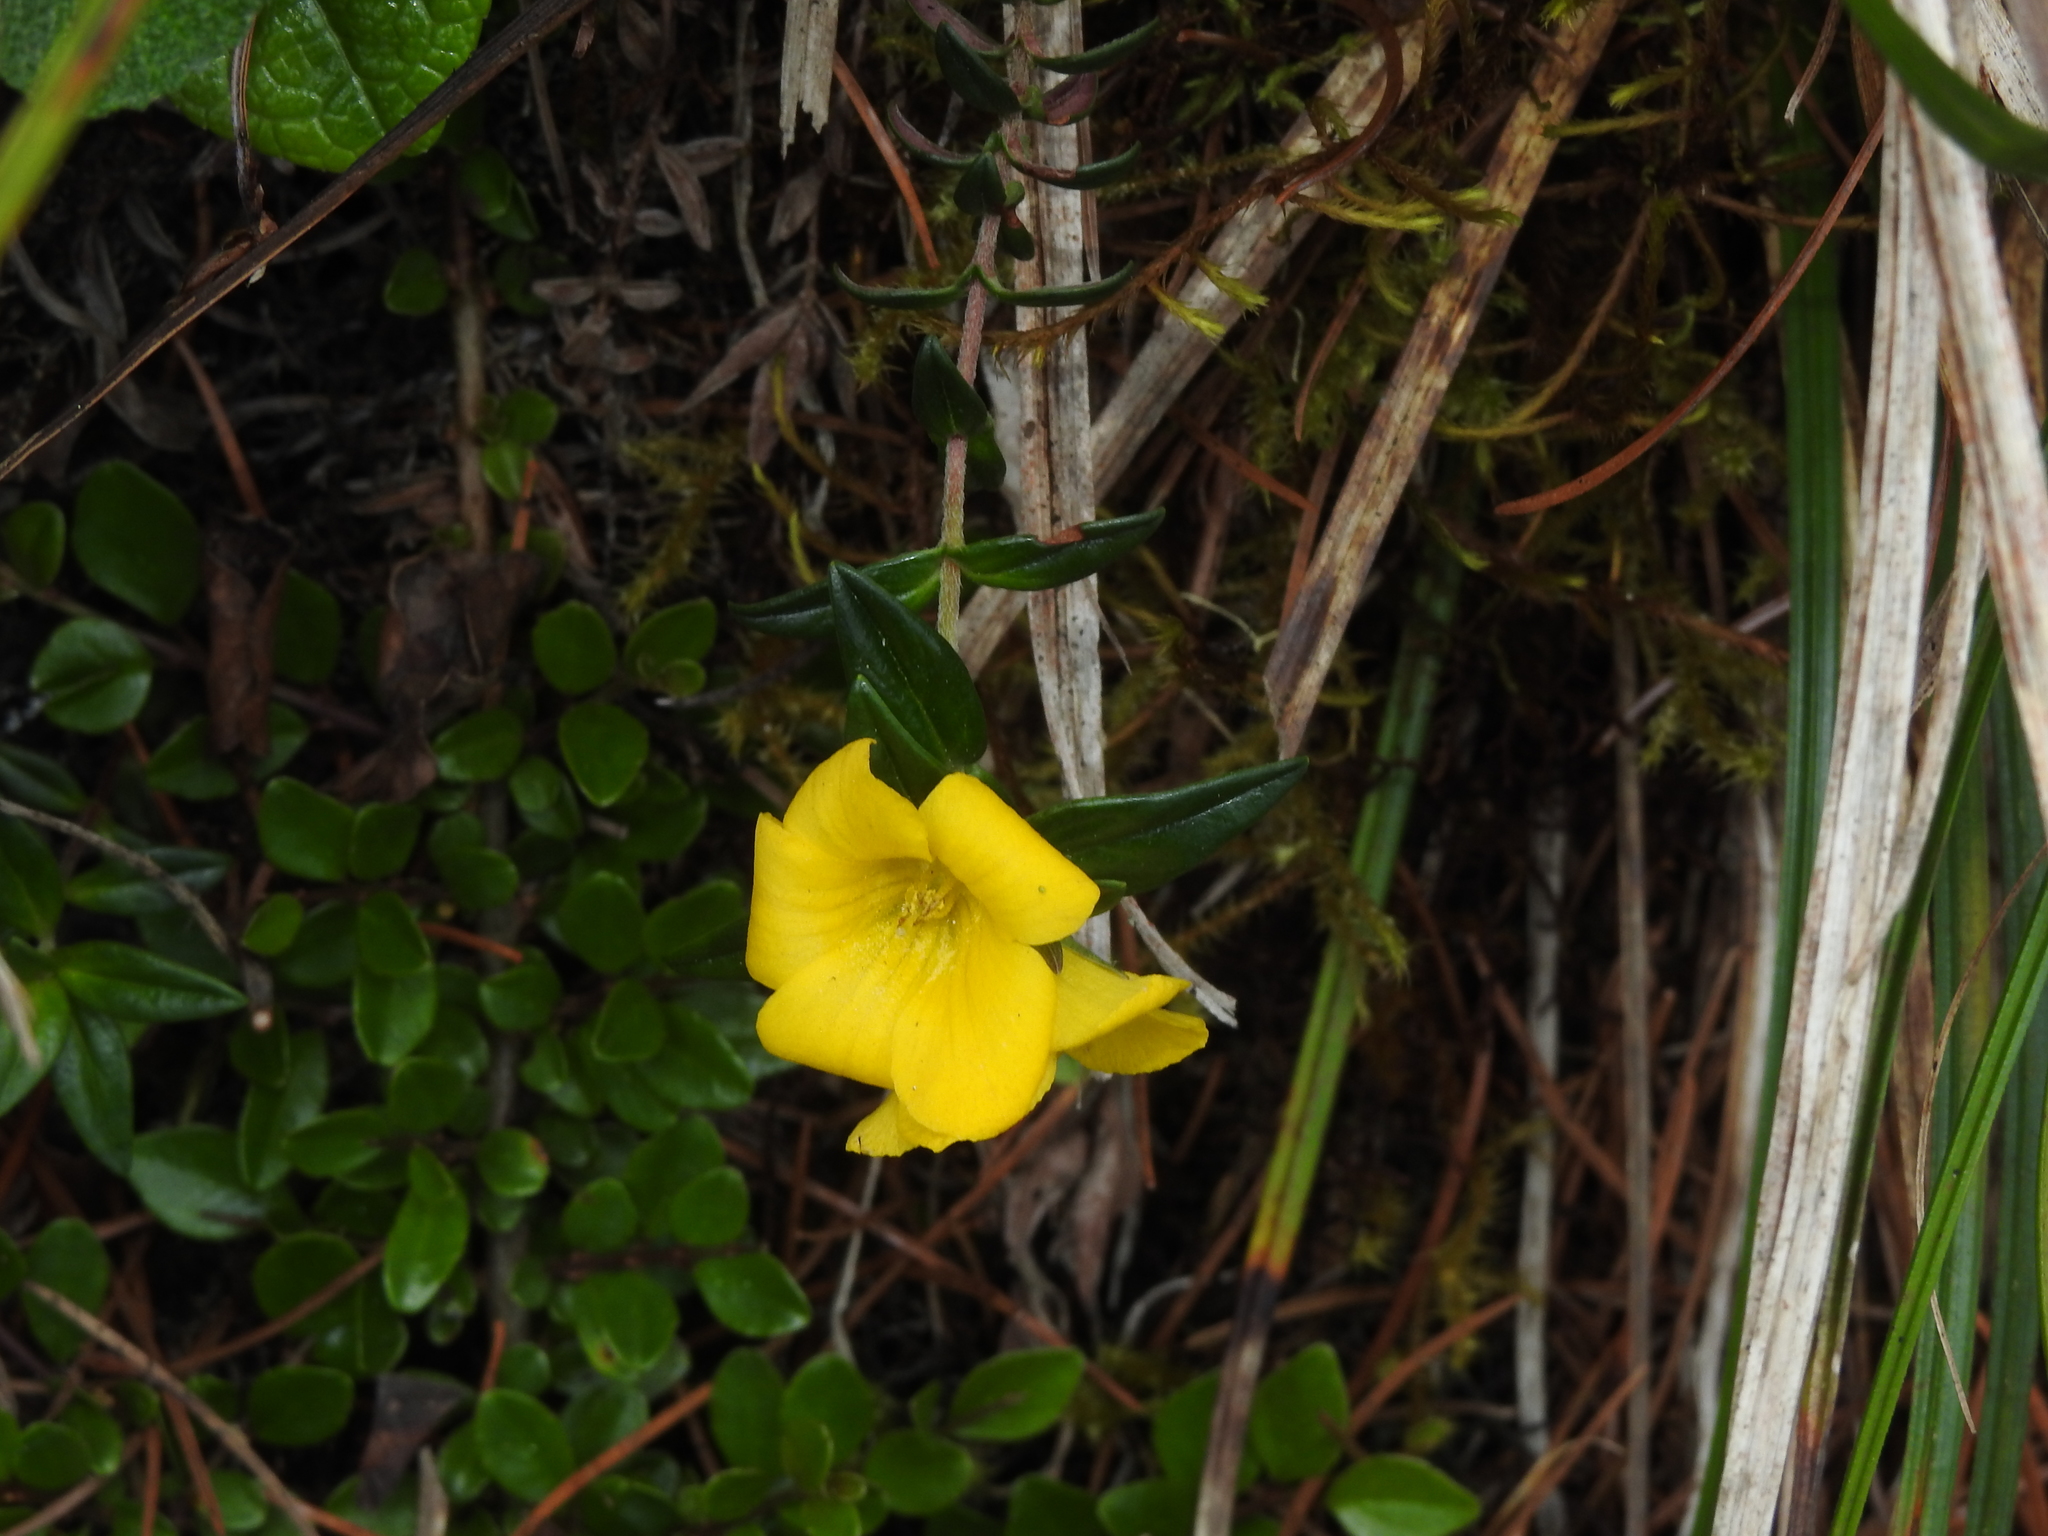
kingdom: Plantae
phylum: Tracheophyta
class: Magnoliopsida
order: Ericales
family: Primulaceae
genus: Lysimachia
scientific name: Lysimachia chingshuiensis
